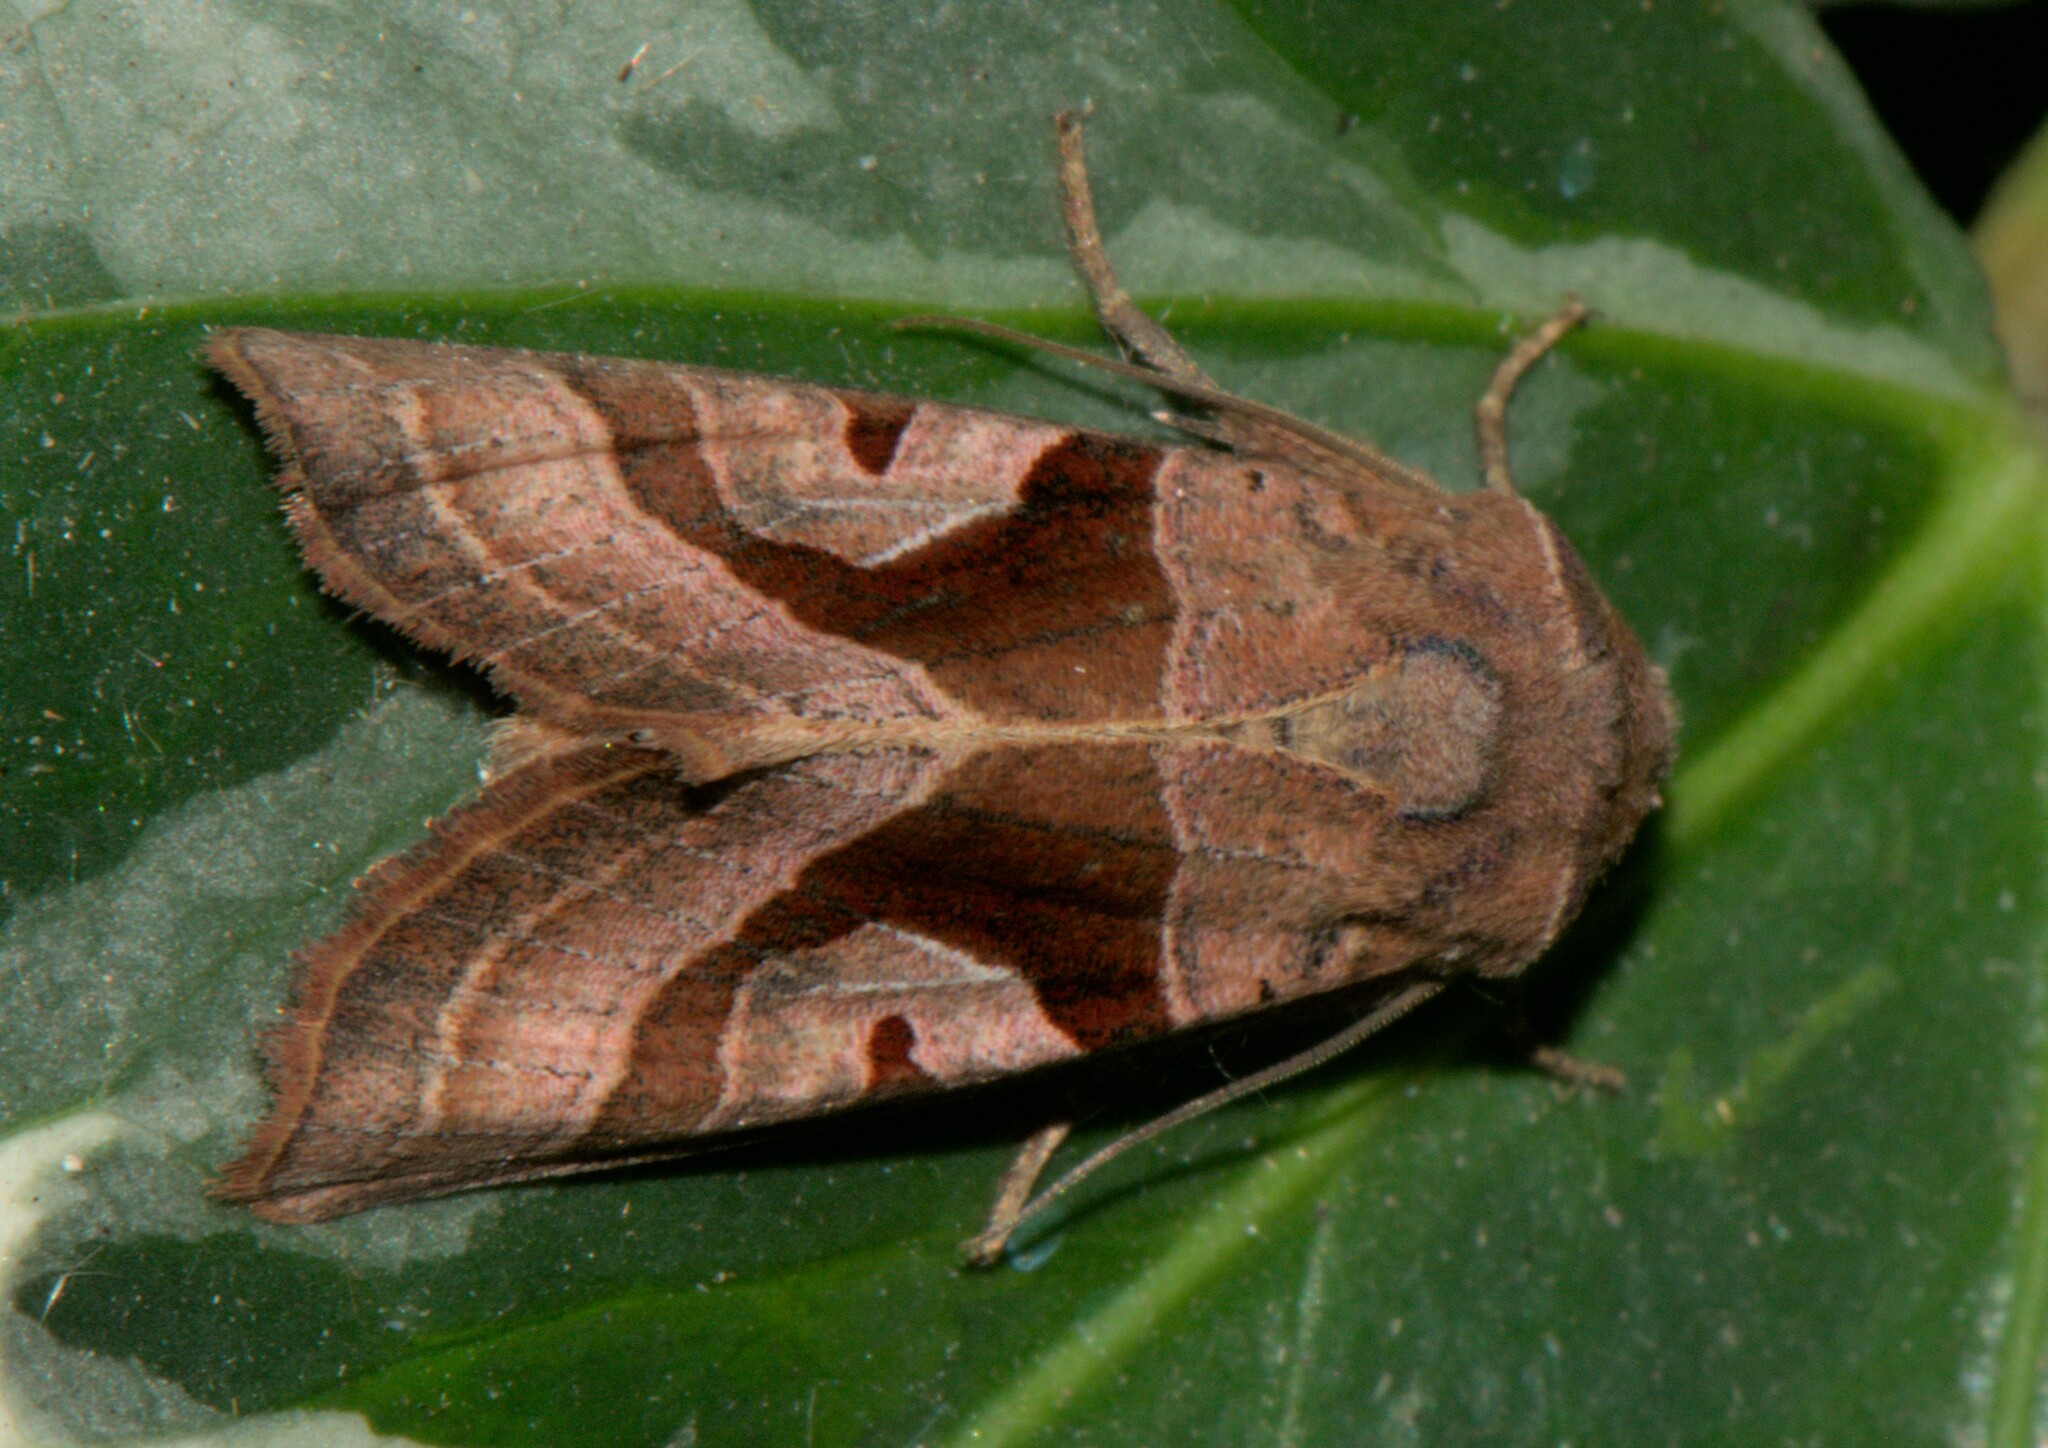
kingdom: Animalia
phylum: Arthropoda
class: Insecta
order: Lepidoptera
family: Noctuidae
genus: Conservula
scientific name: Conservula indica
